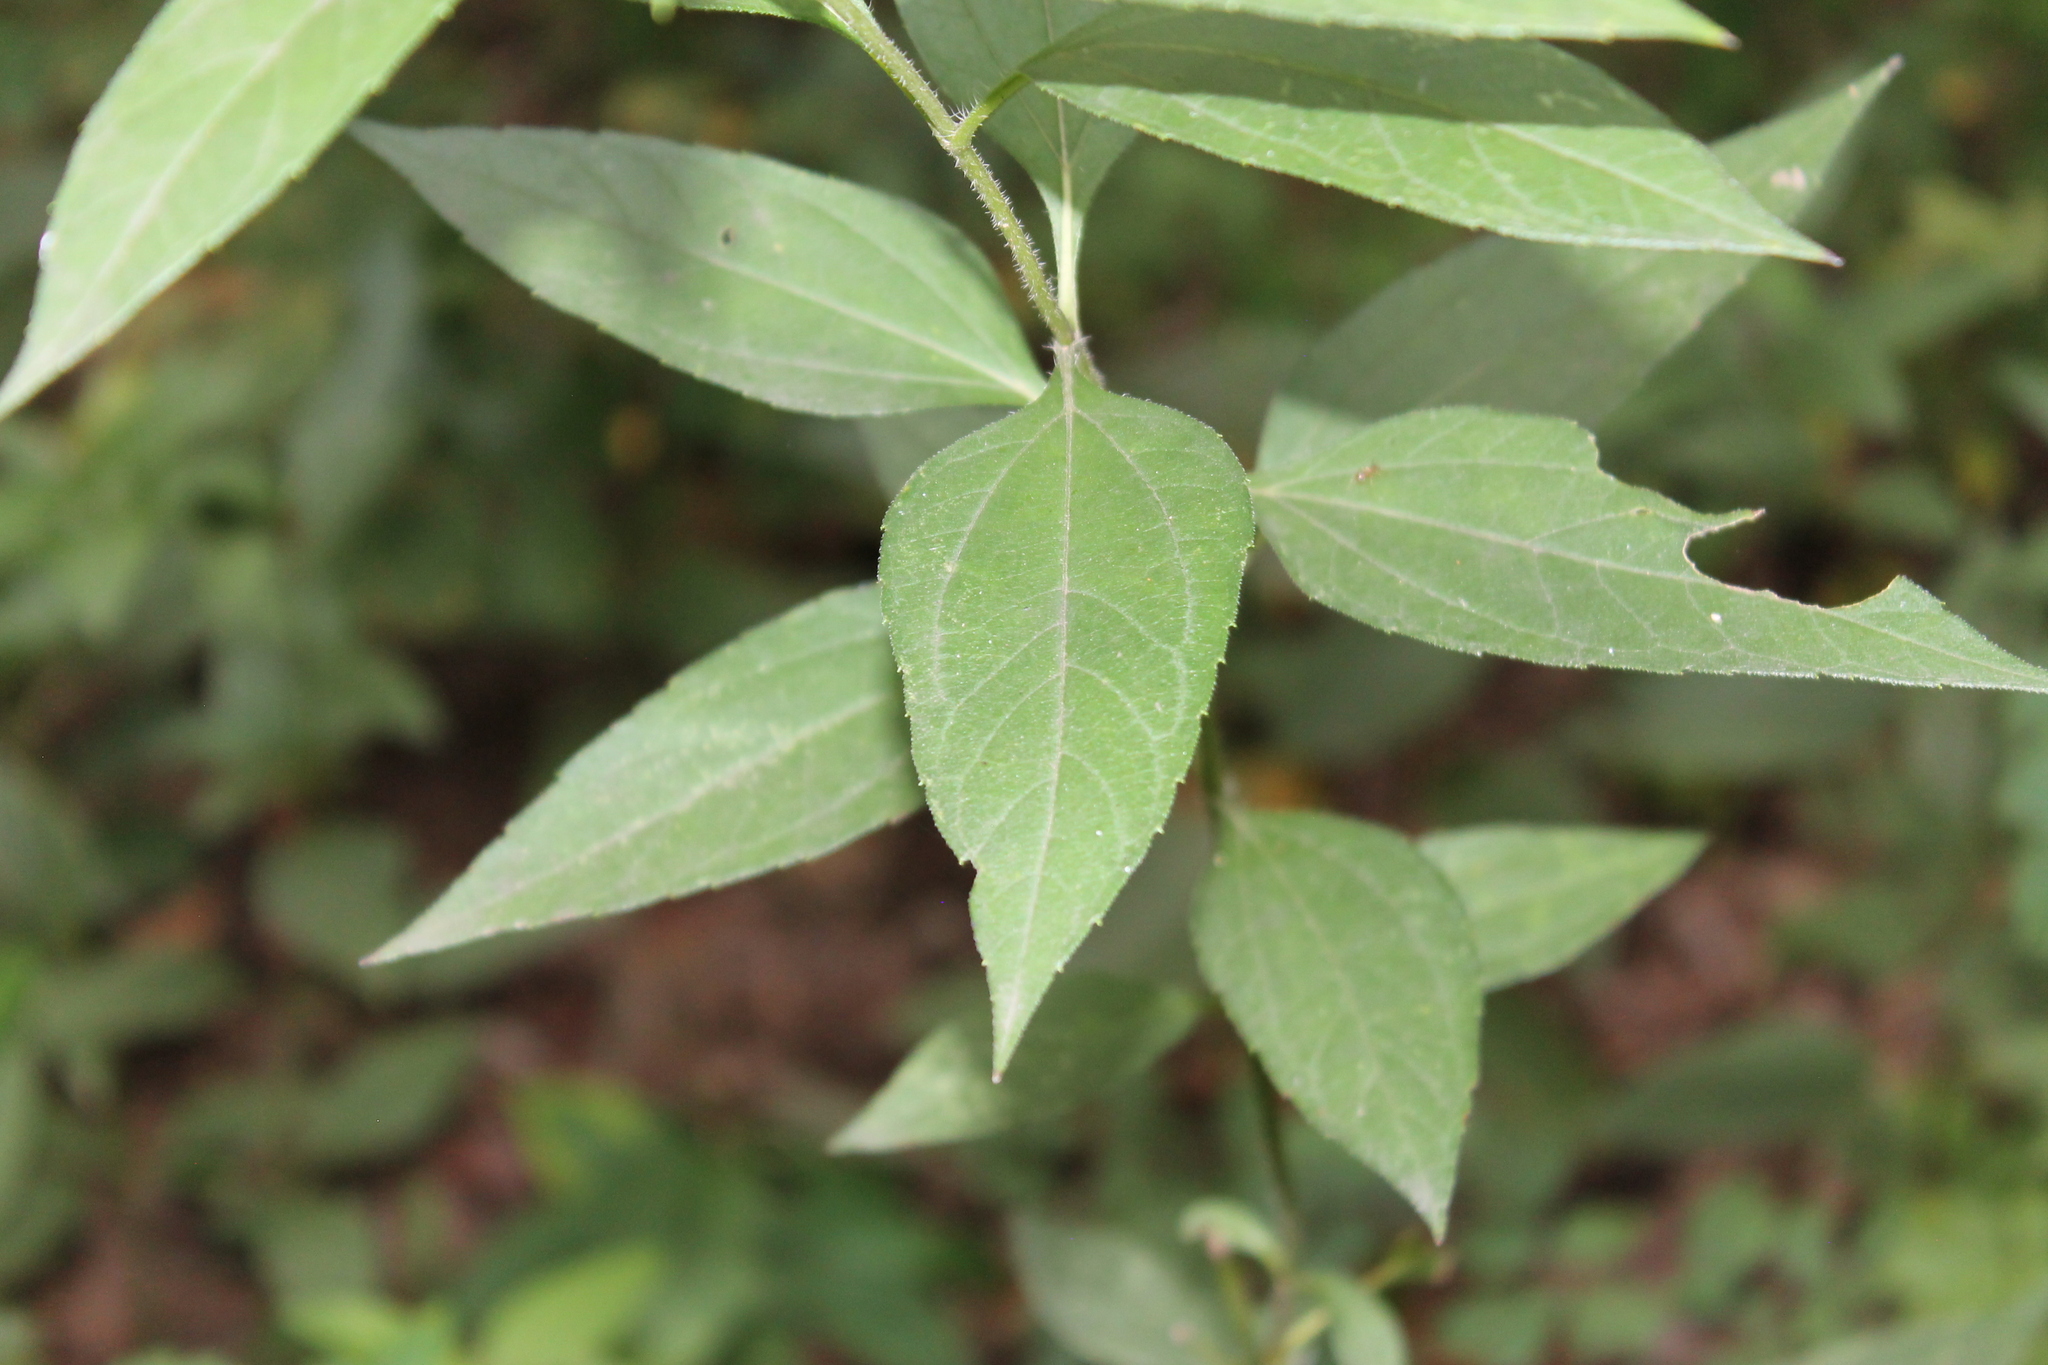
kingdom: Plantae
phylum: Tracheophyta
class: Magnoliopsida
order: Asterales
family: Asteraceae
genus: Helianthus
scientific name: Helianthus strumosus
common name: Pale-leaved sunflower
